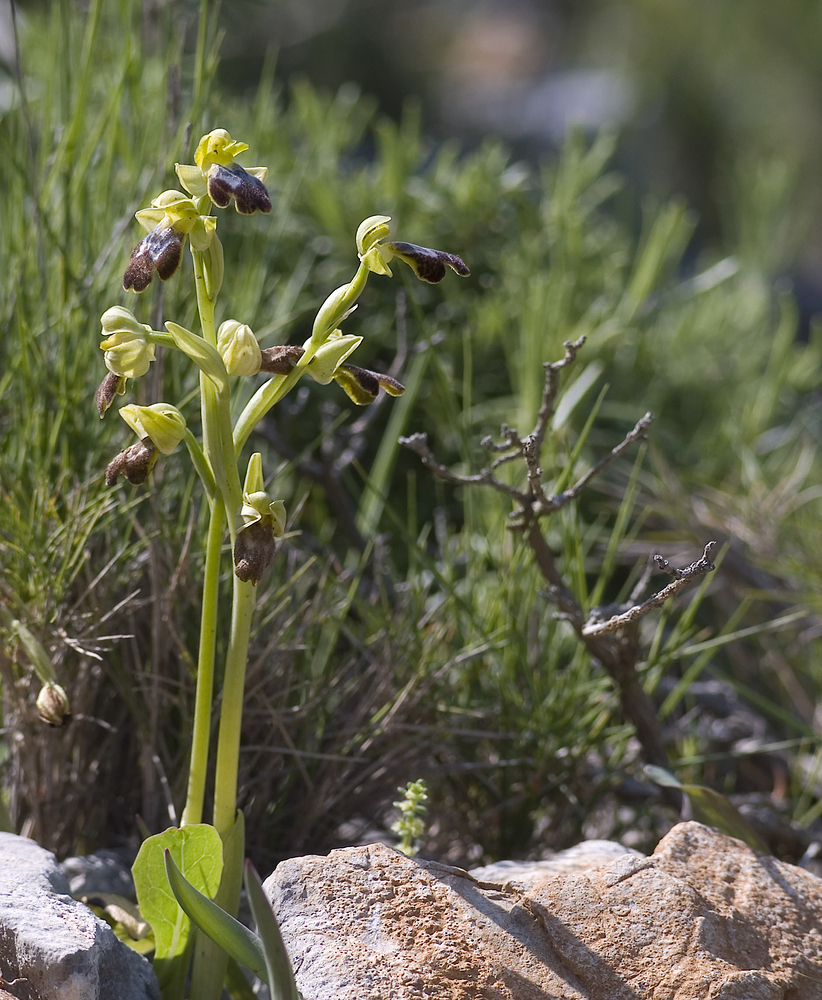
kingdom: Plantae
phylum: Tracheophyta
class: Liliopsida
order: Asparagales
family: Orchidaceae
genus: Ophrys
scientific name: Ophrys fusca
